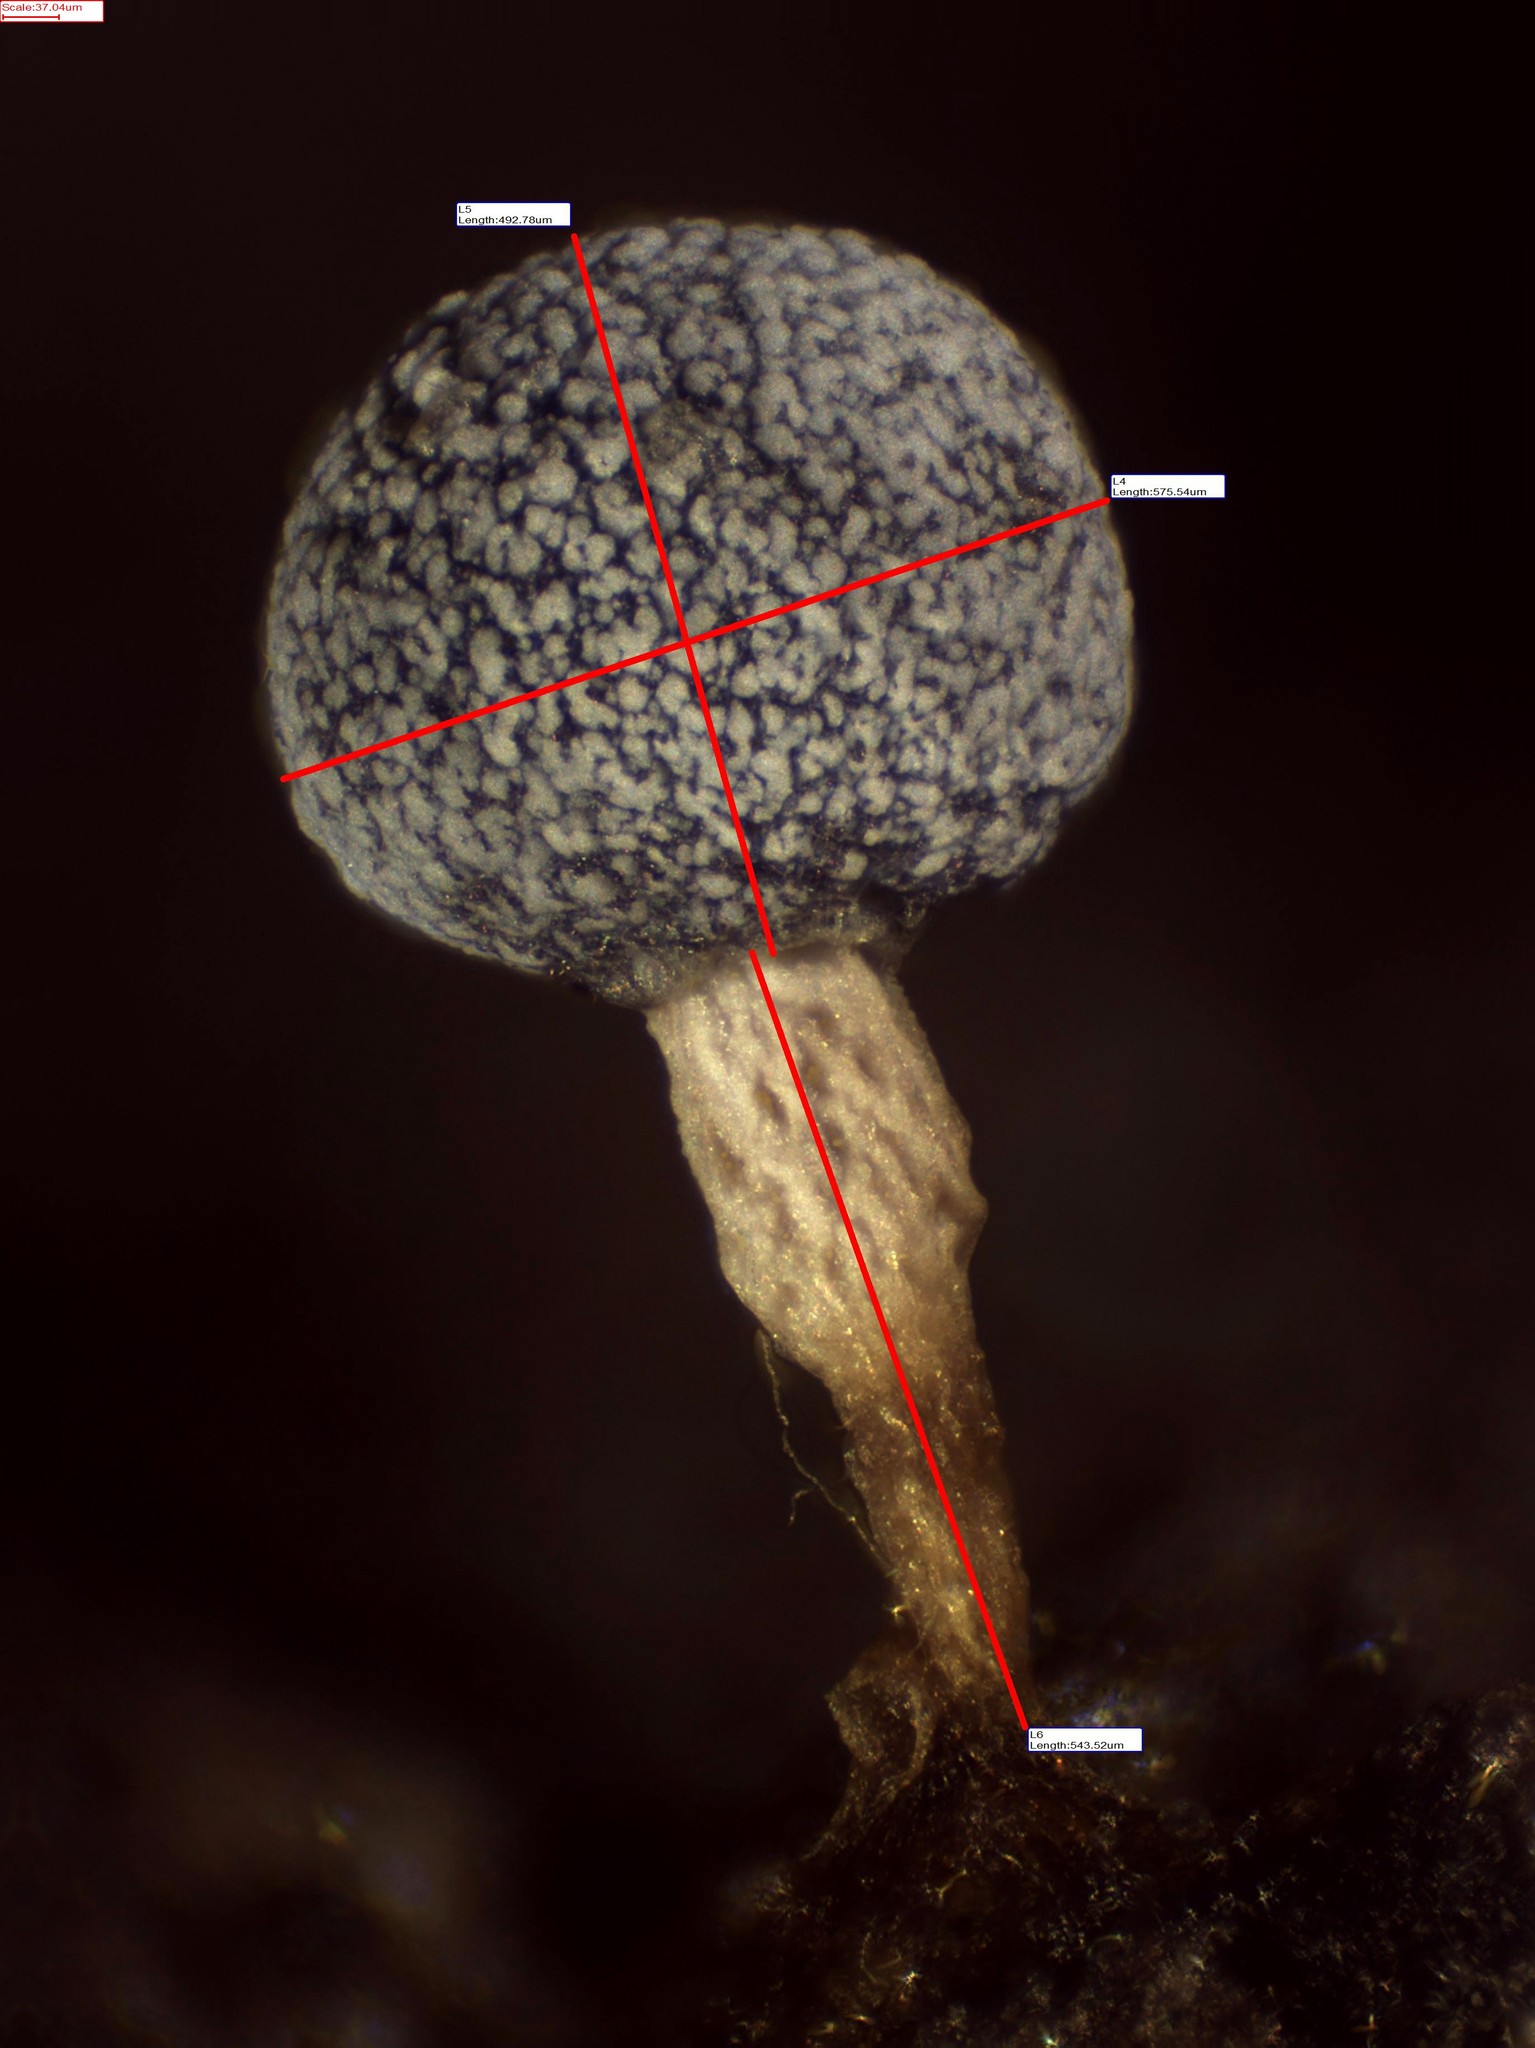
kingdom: Protozoa
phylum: Mycetozoa
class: Myxomycetes
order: Physarales
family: Physaraceae
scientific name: Physaraceae
